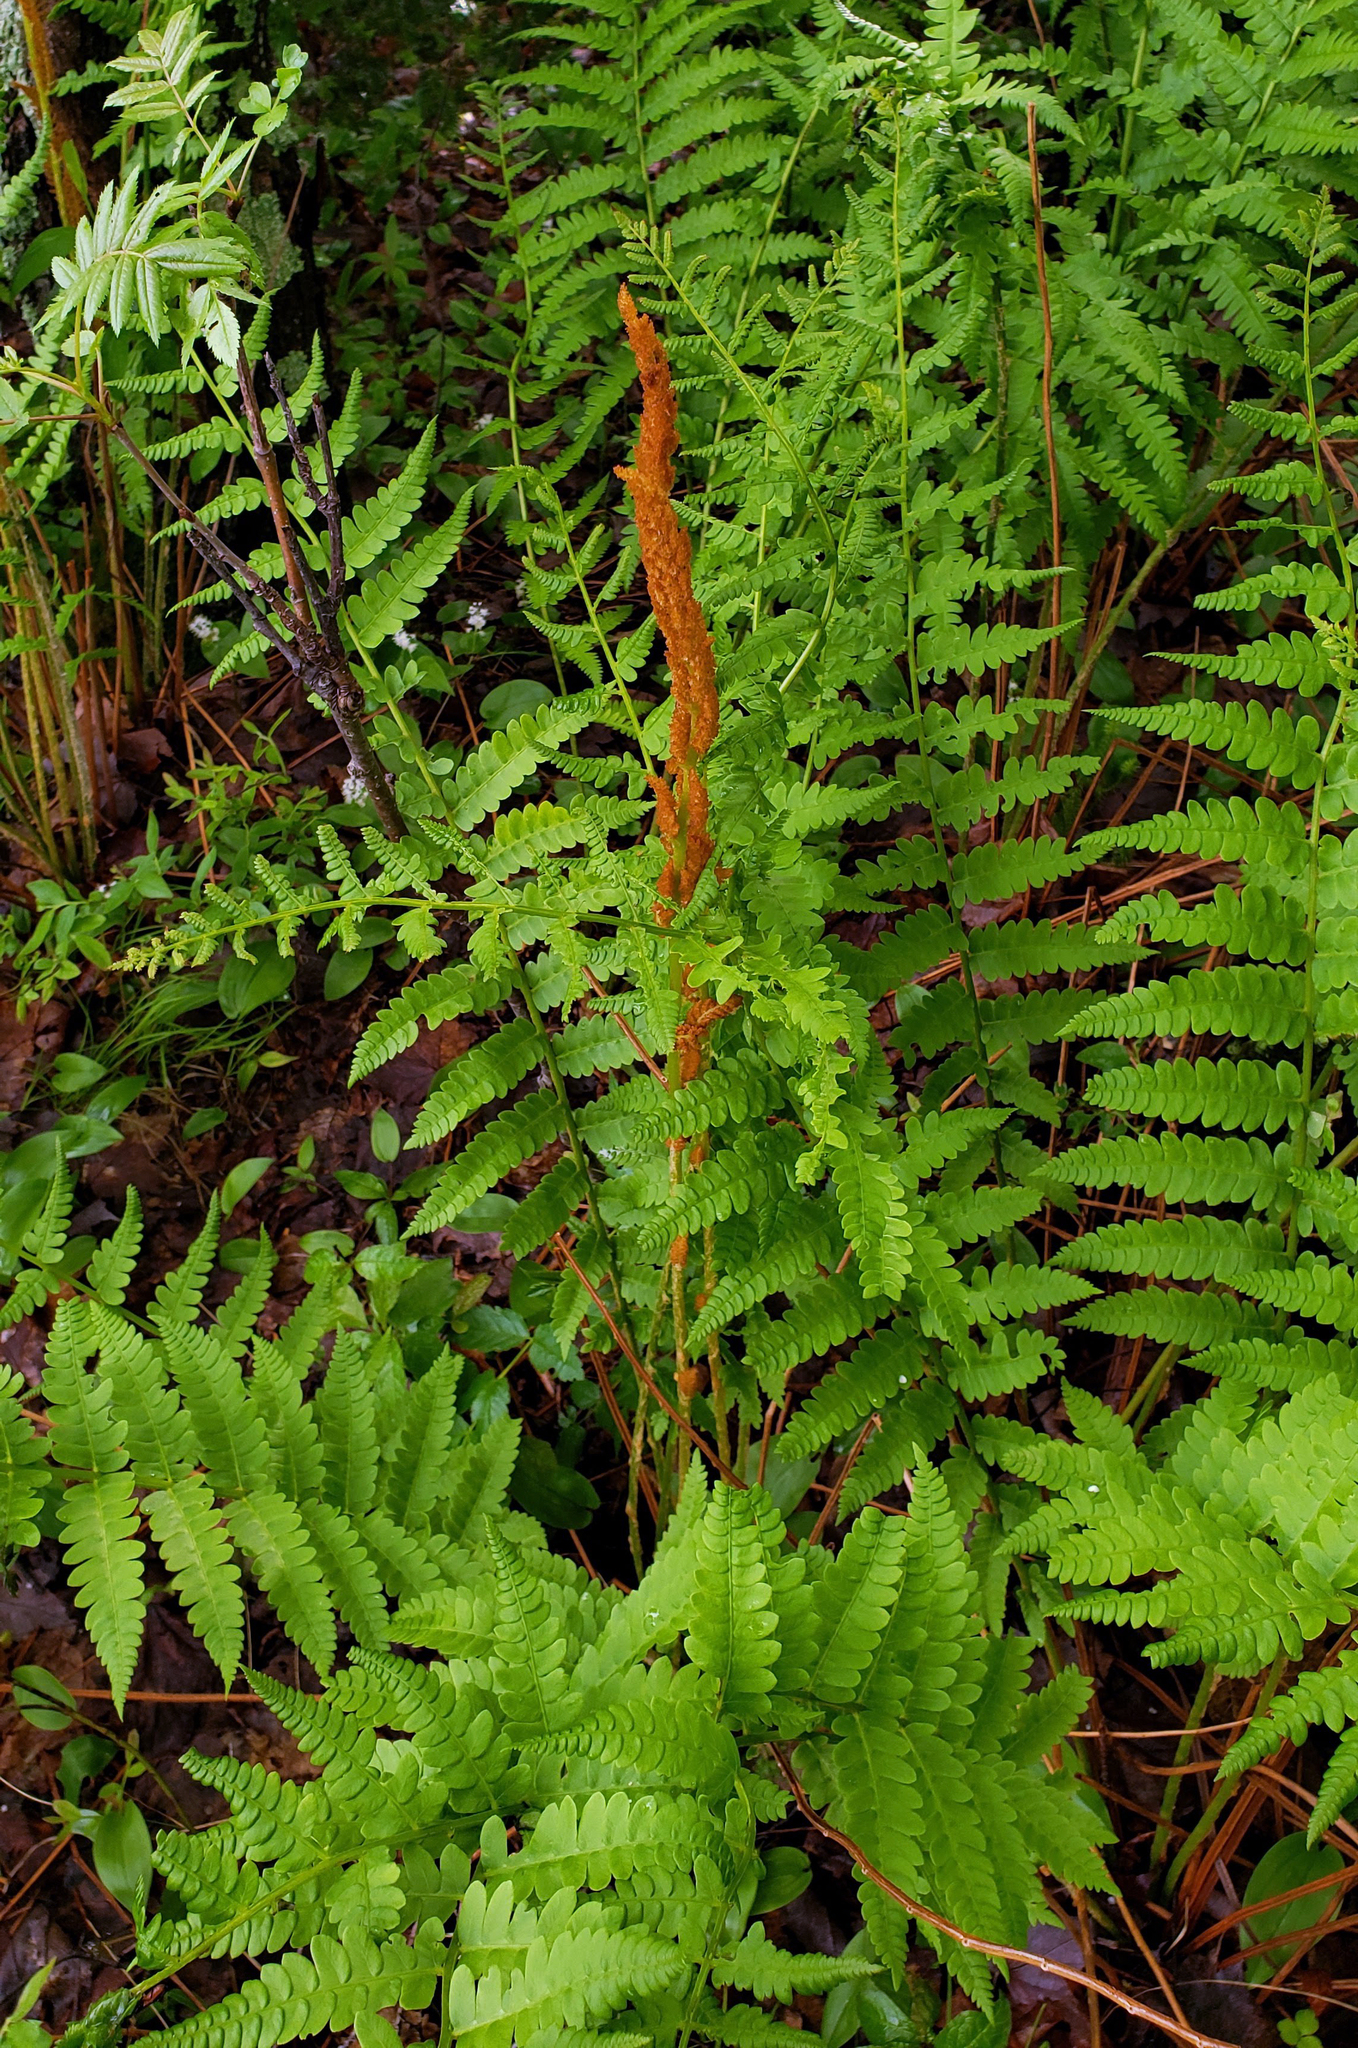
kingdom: Plantae
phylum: Tracheophyta
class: Polypodiopsida
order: Osmundales
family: Osmundaceae
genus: Osmundastrum
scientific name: Osmundastrum cinnamomeum
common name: Cinnamon fern
